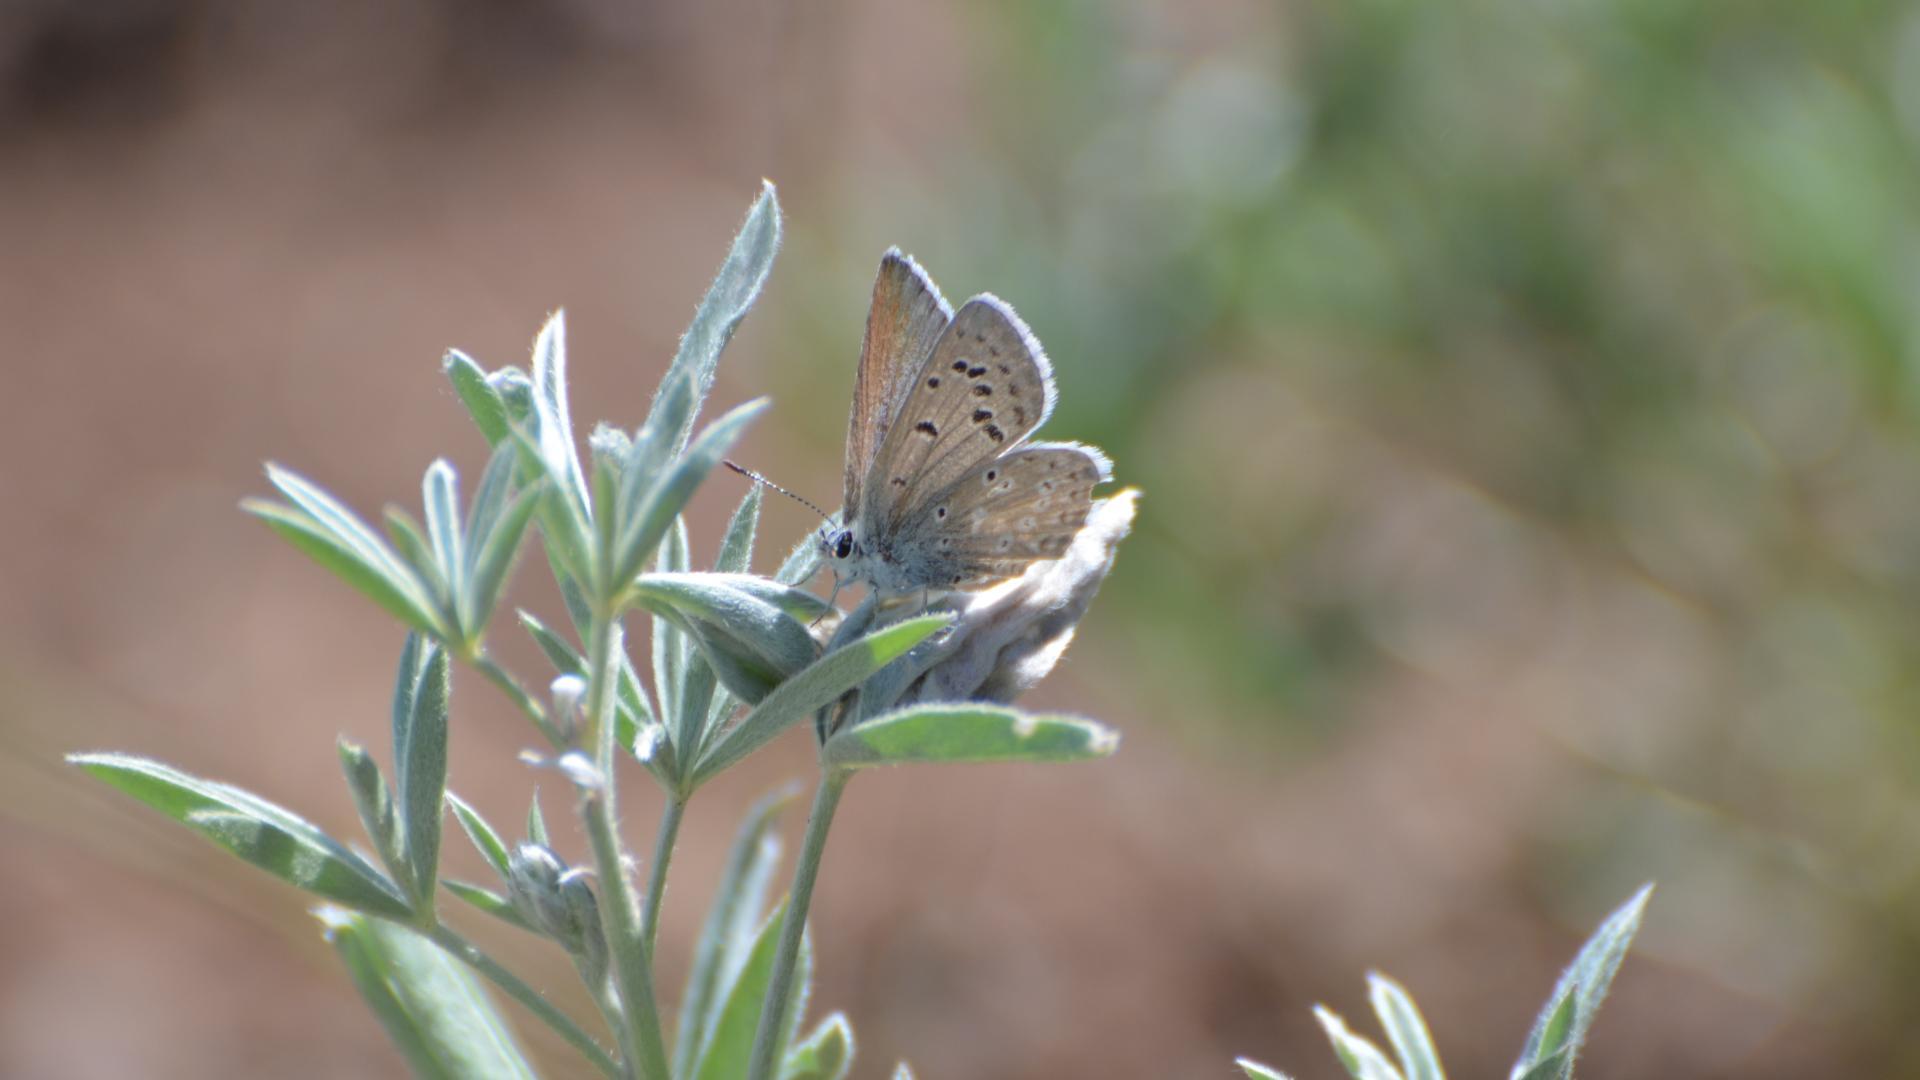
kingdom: Animalia
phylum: Arthropoda
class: Insecta
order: Lepidoptera
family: Lycaenidae
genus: Icaricia
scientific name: Icaricia icarioides
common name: Boisduval's blue
